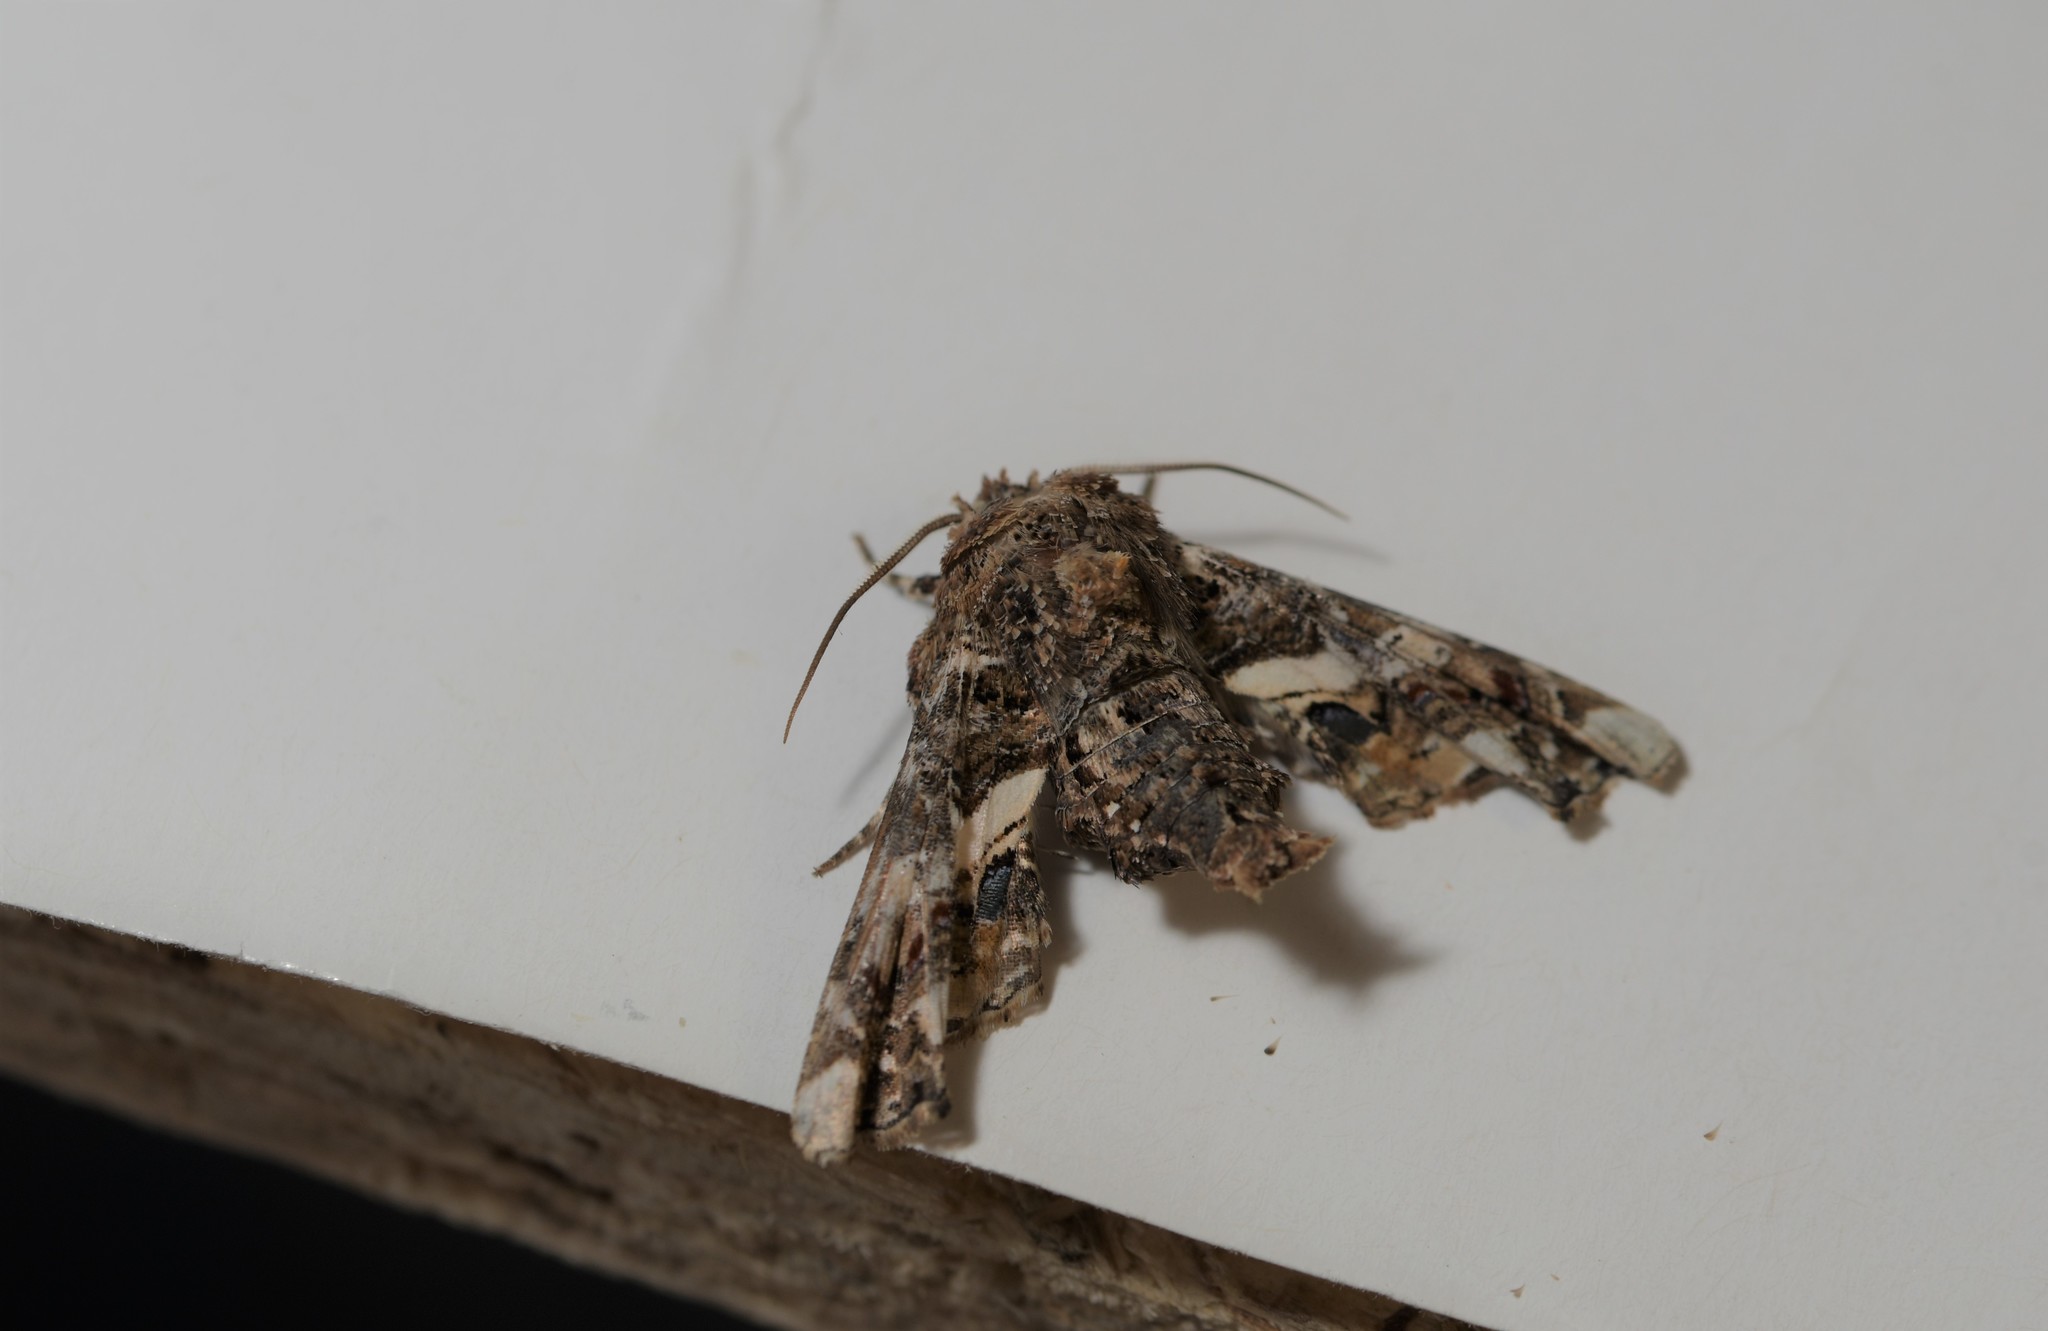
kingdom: Animalia
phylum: Arthropoda
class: Insecta
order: Lepidoptera
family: Euteliidae
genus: Eutelia
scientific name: Eutelia adulatrix
